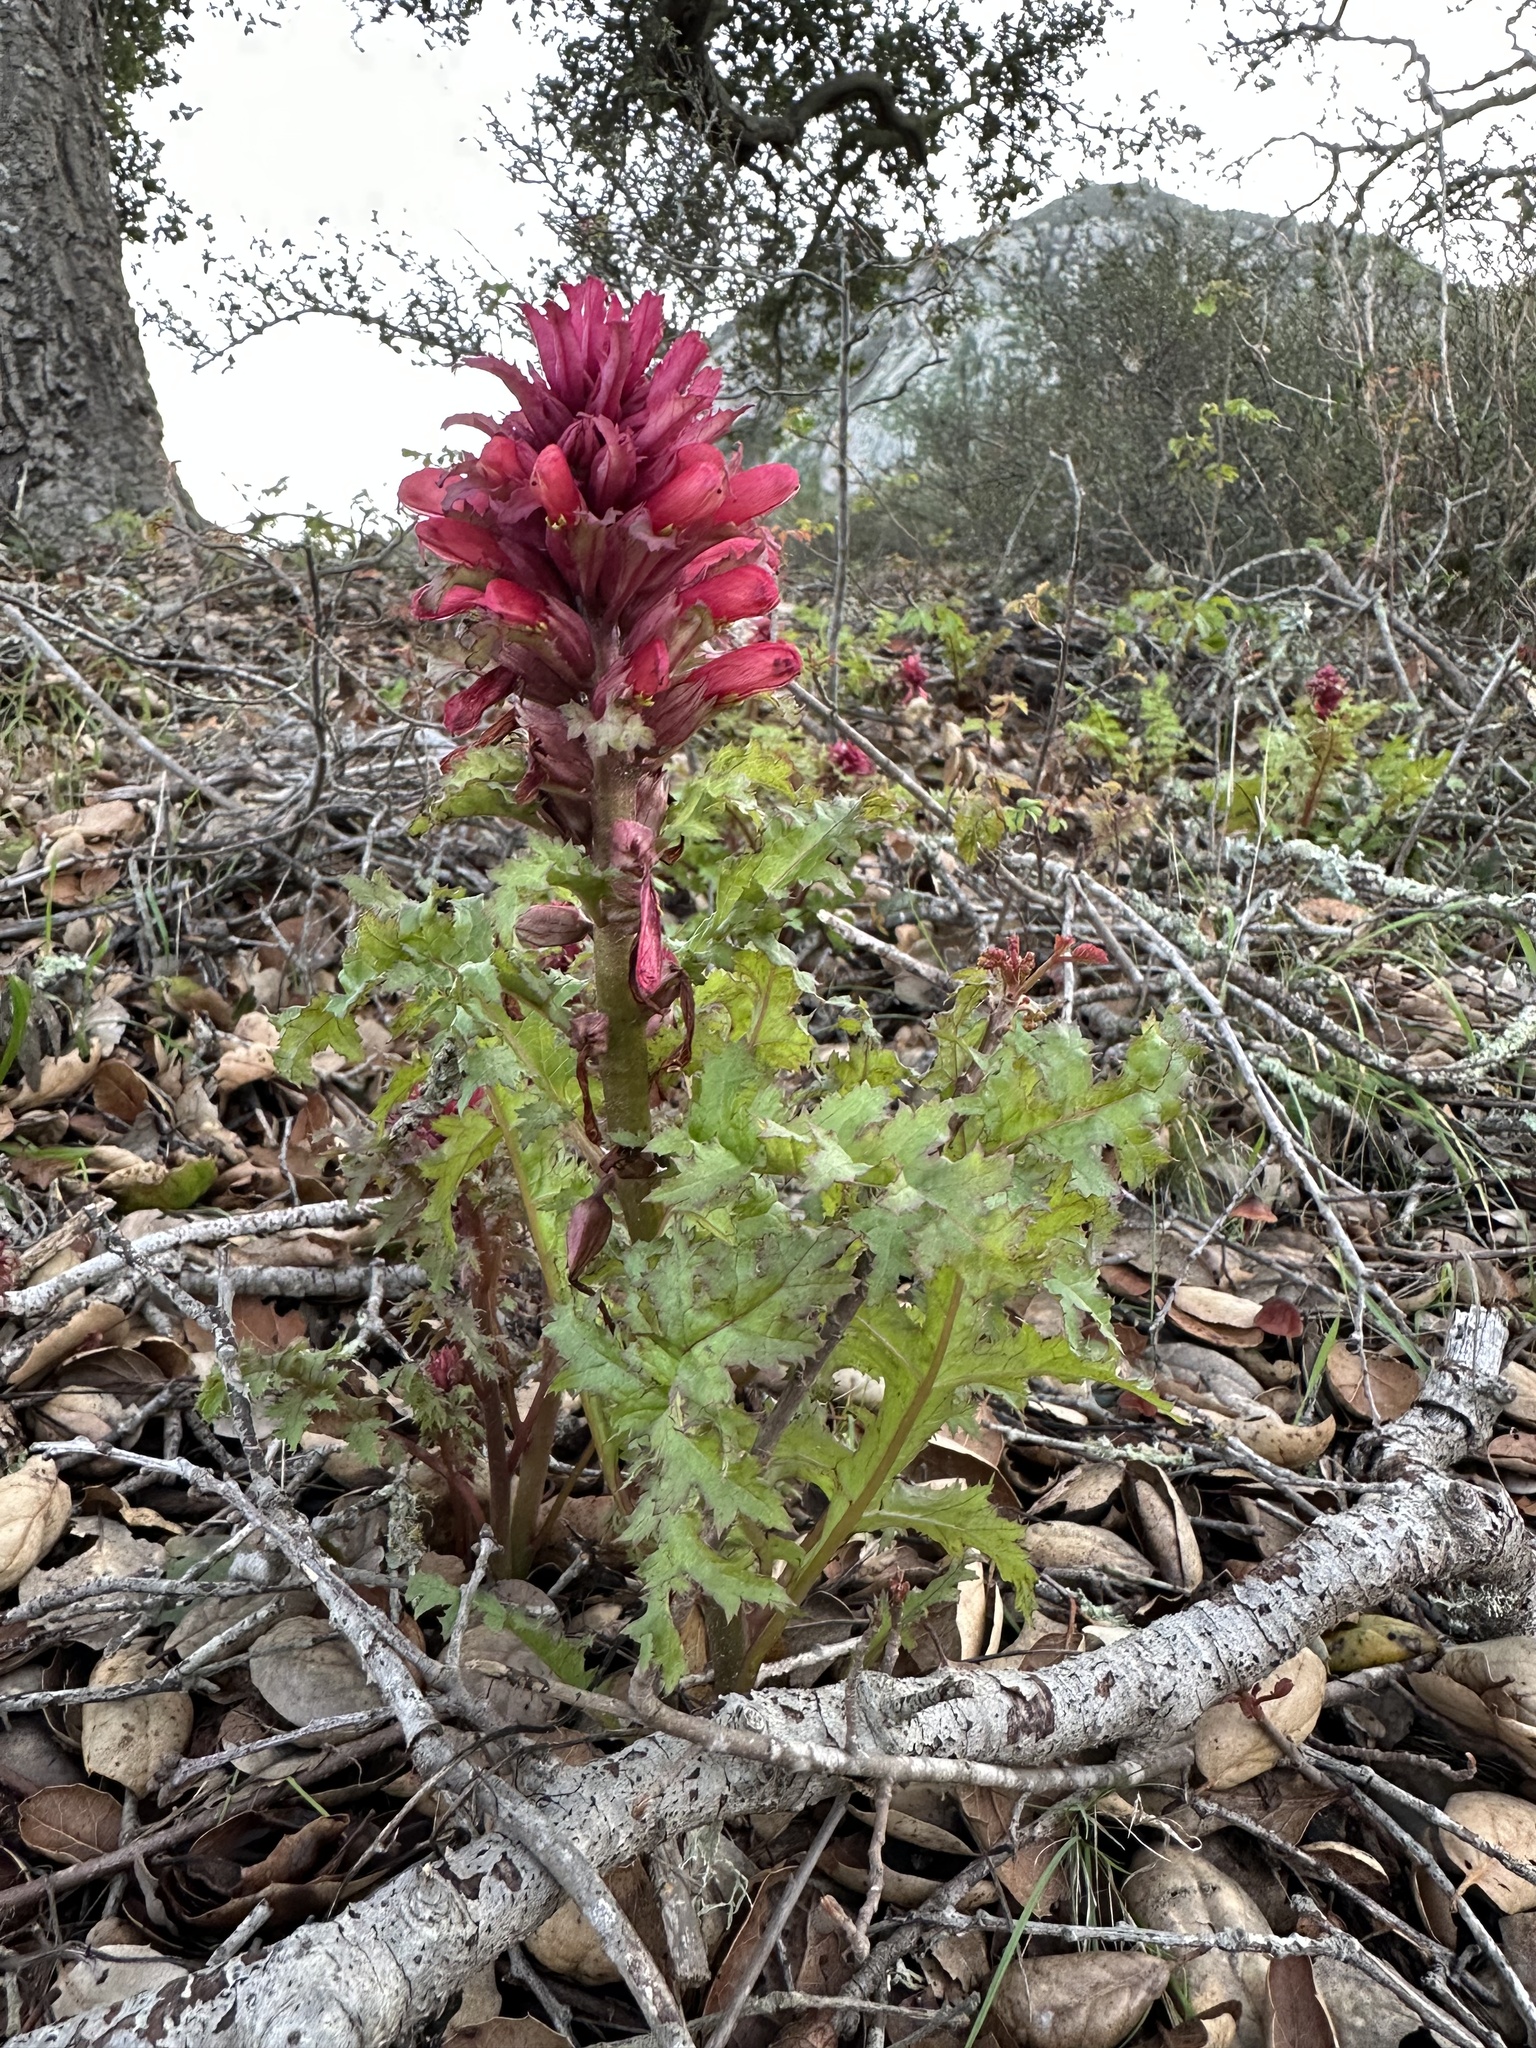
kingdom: Plantae
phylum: Tracheophyta
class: Magnoliopsida
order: Lamiales
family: Orobanchaceae
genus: Pedicularis
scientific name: Pedicularis densiflora
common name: Indian warrior
